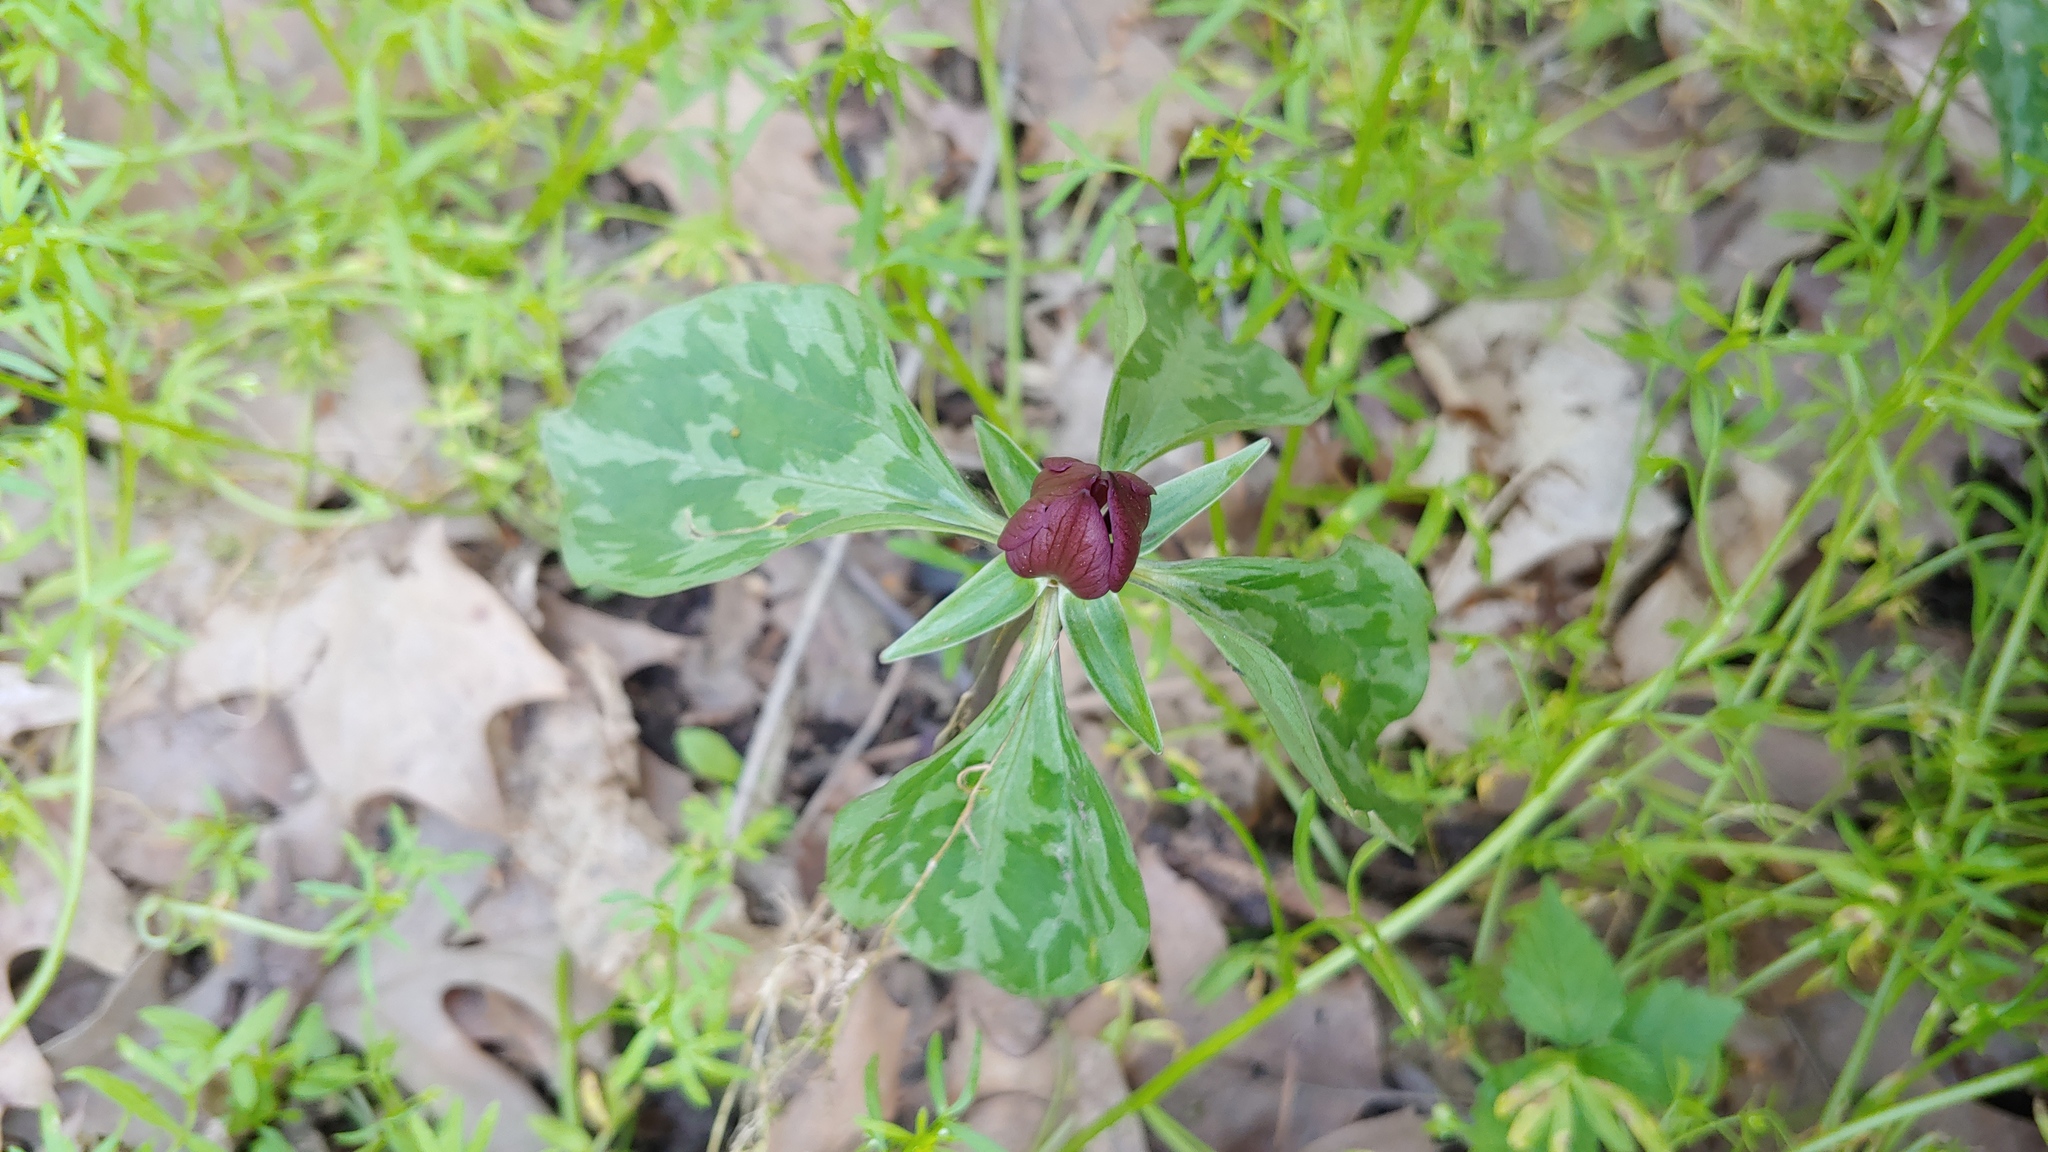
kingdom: Plantae
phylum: Tracheophyta
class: Liliopsida
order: Liliales
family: Melanthiaceae
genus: Trillium
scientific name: Trillium recurvatum
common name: Bloody butcher
